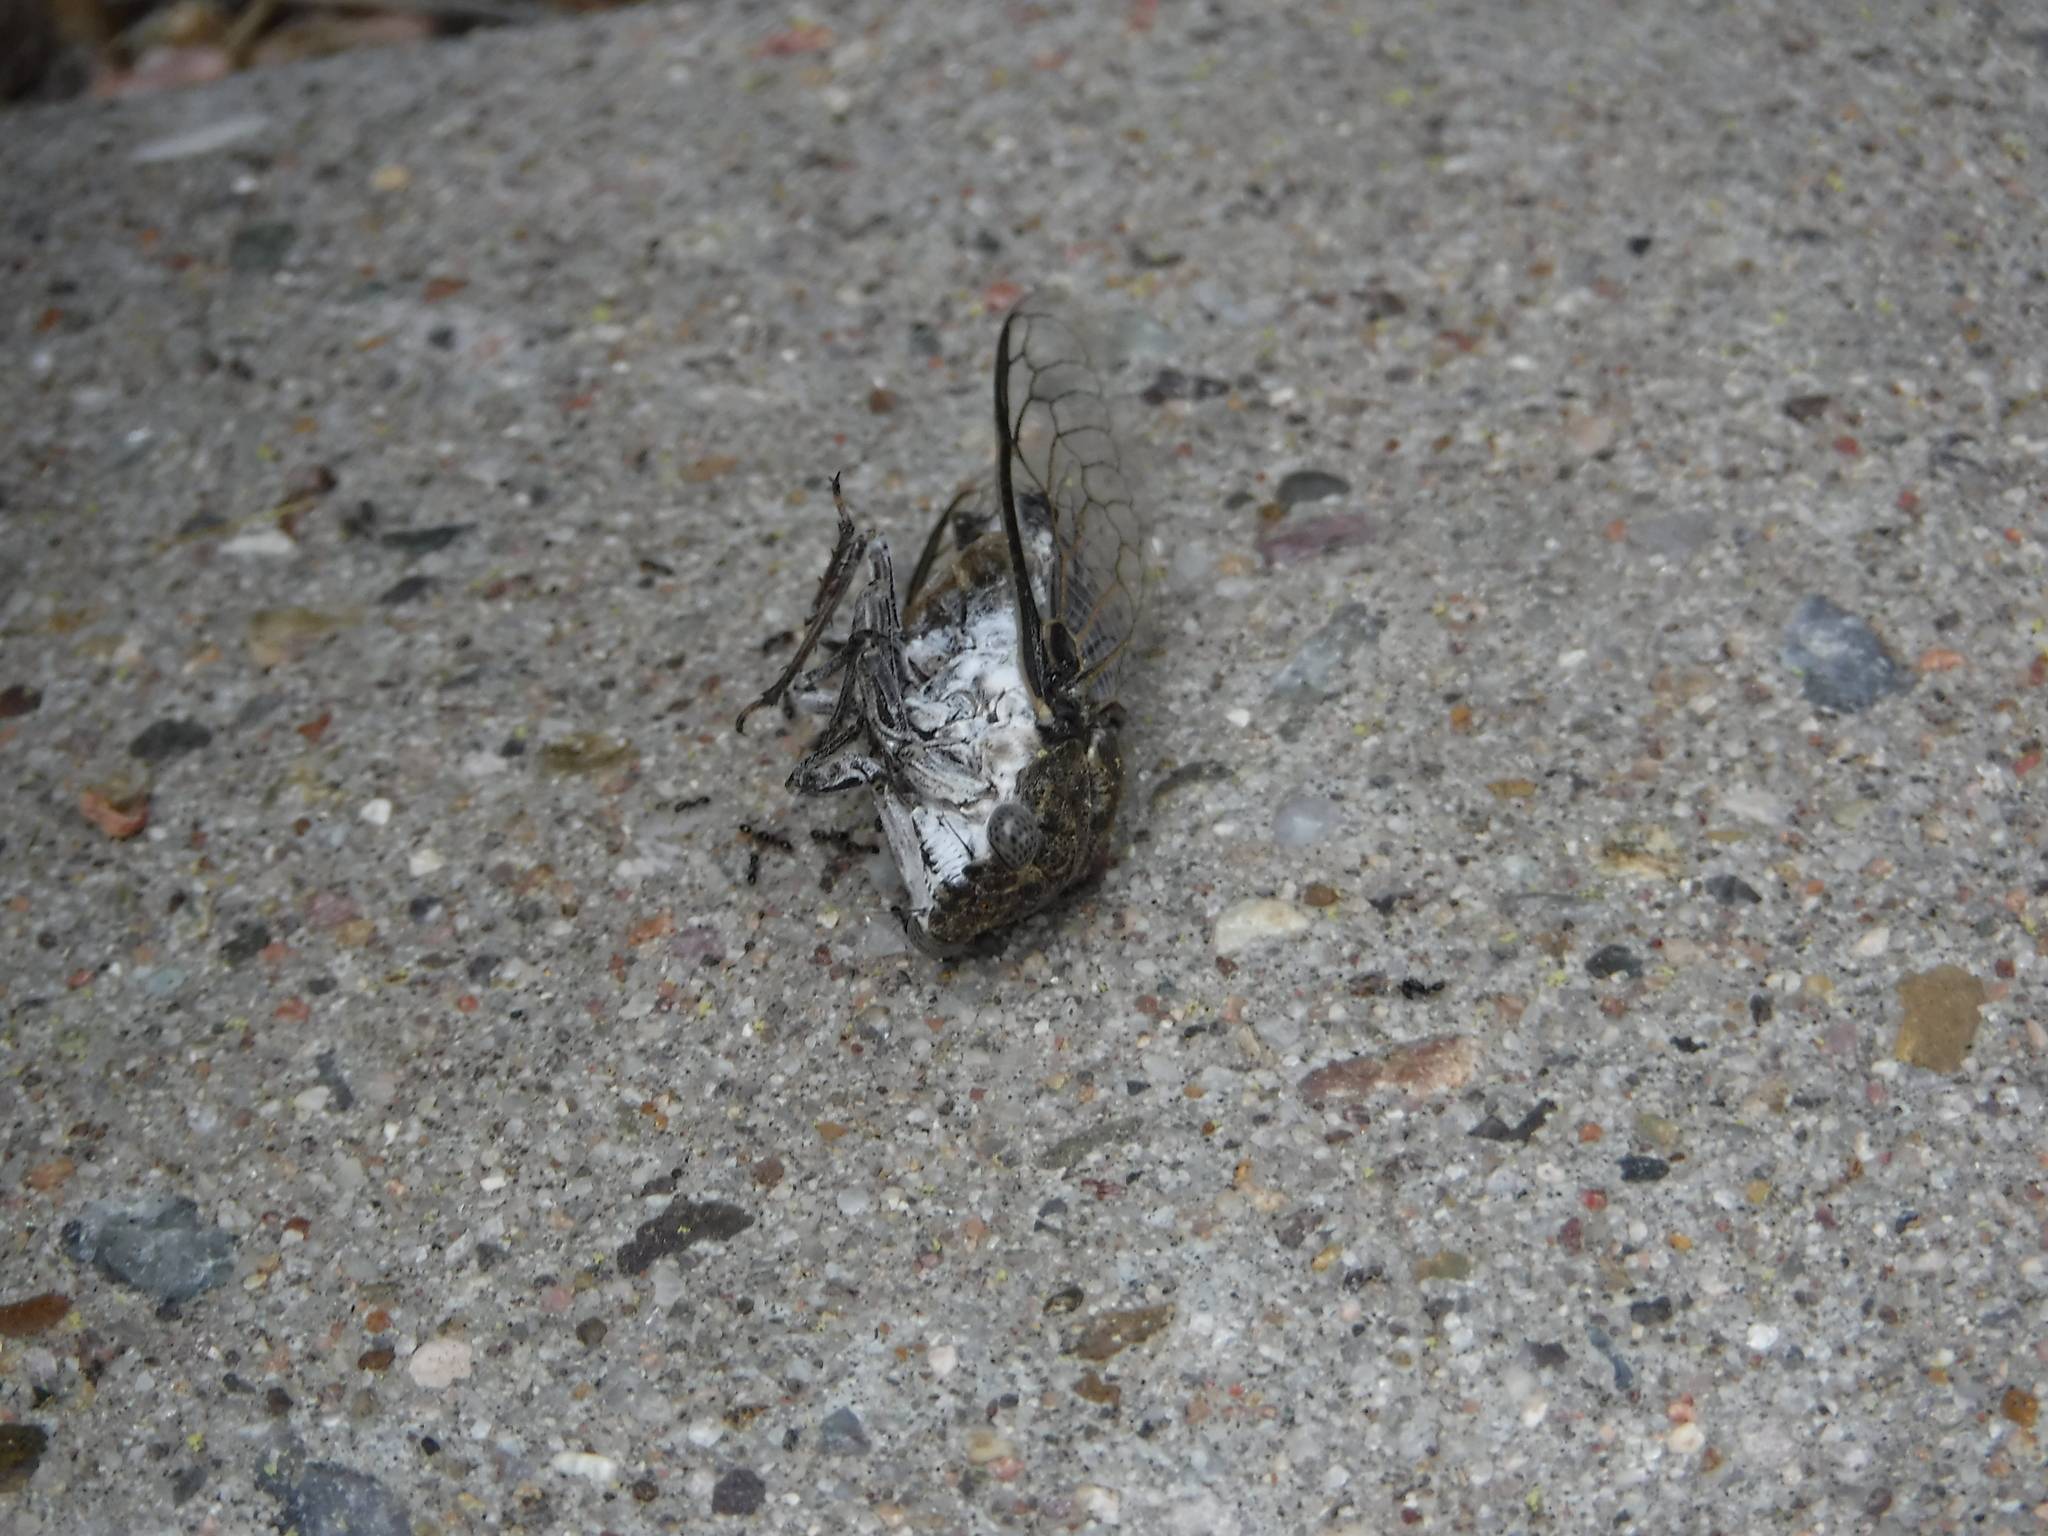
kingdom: Animalia
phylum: Arthropoda
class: Insecta
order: Hemiptera
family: Cicadidae
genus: Cacama
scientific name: Cacama valvata
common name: Cactus dodger
